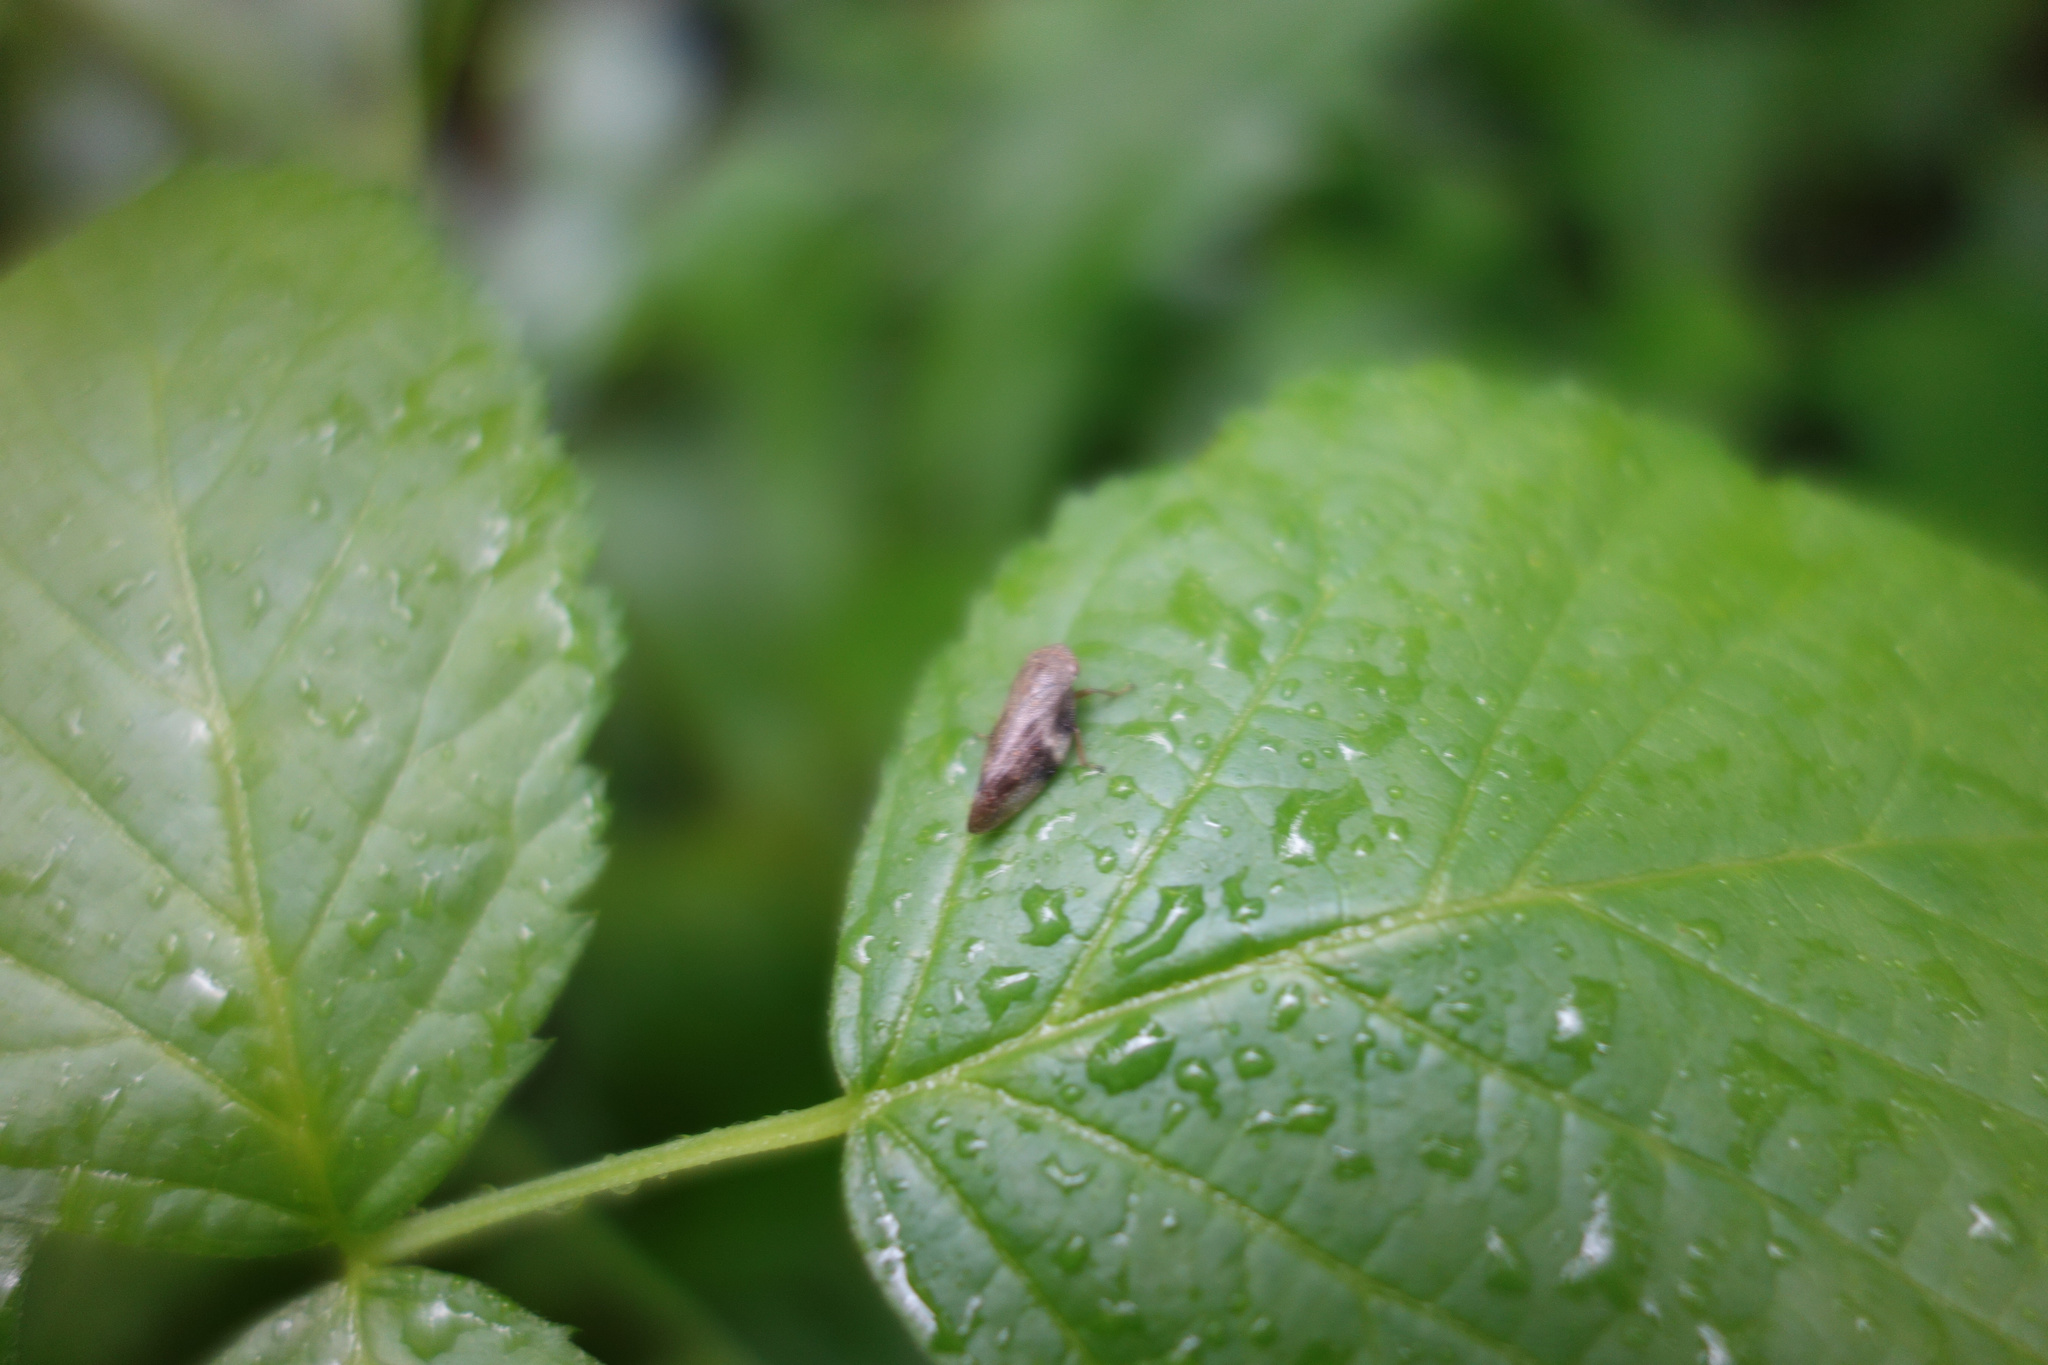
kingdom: Animalia
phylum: Arthropoda
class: Insecta
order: Hemiptera
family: Aphrophoridae
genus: Aphrophora
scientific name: Aphrophora alni
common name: European alder spittlebug
